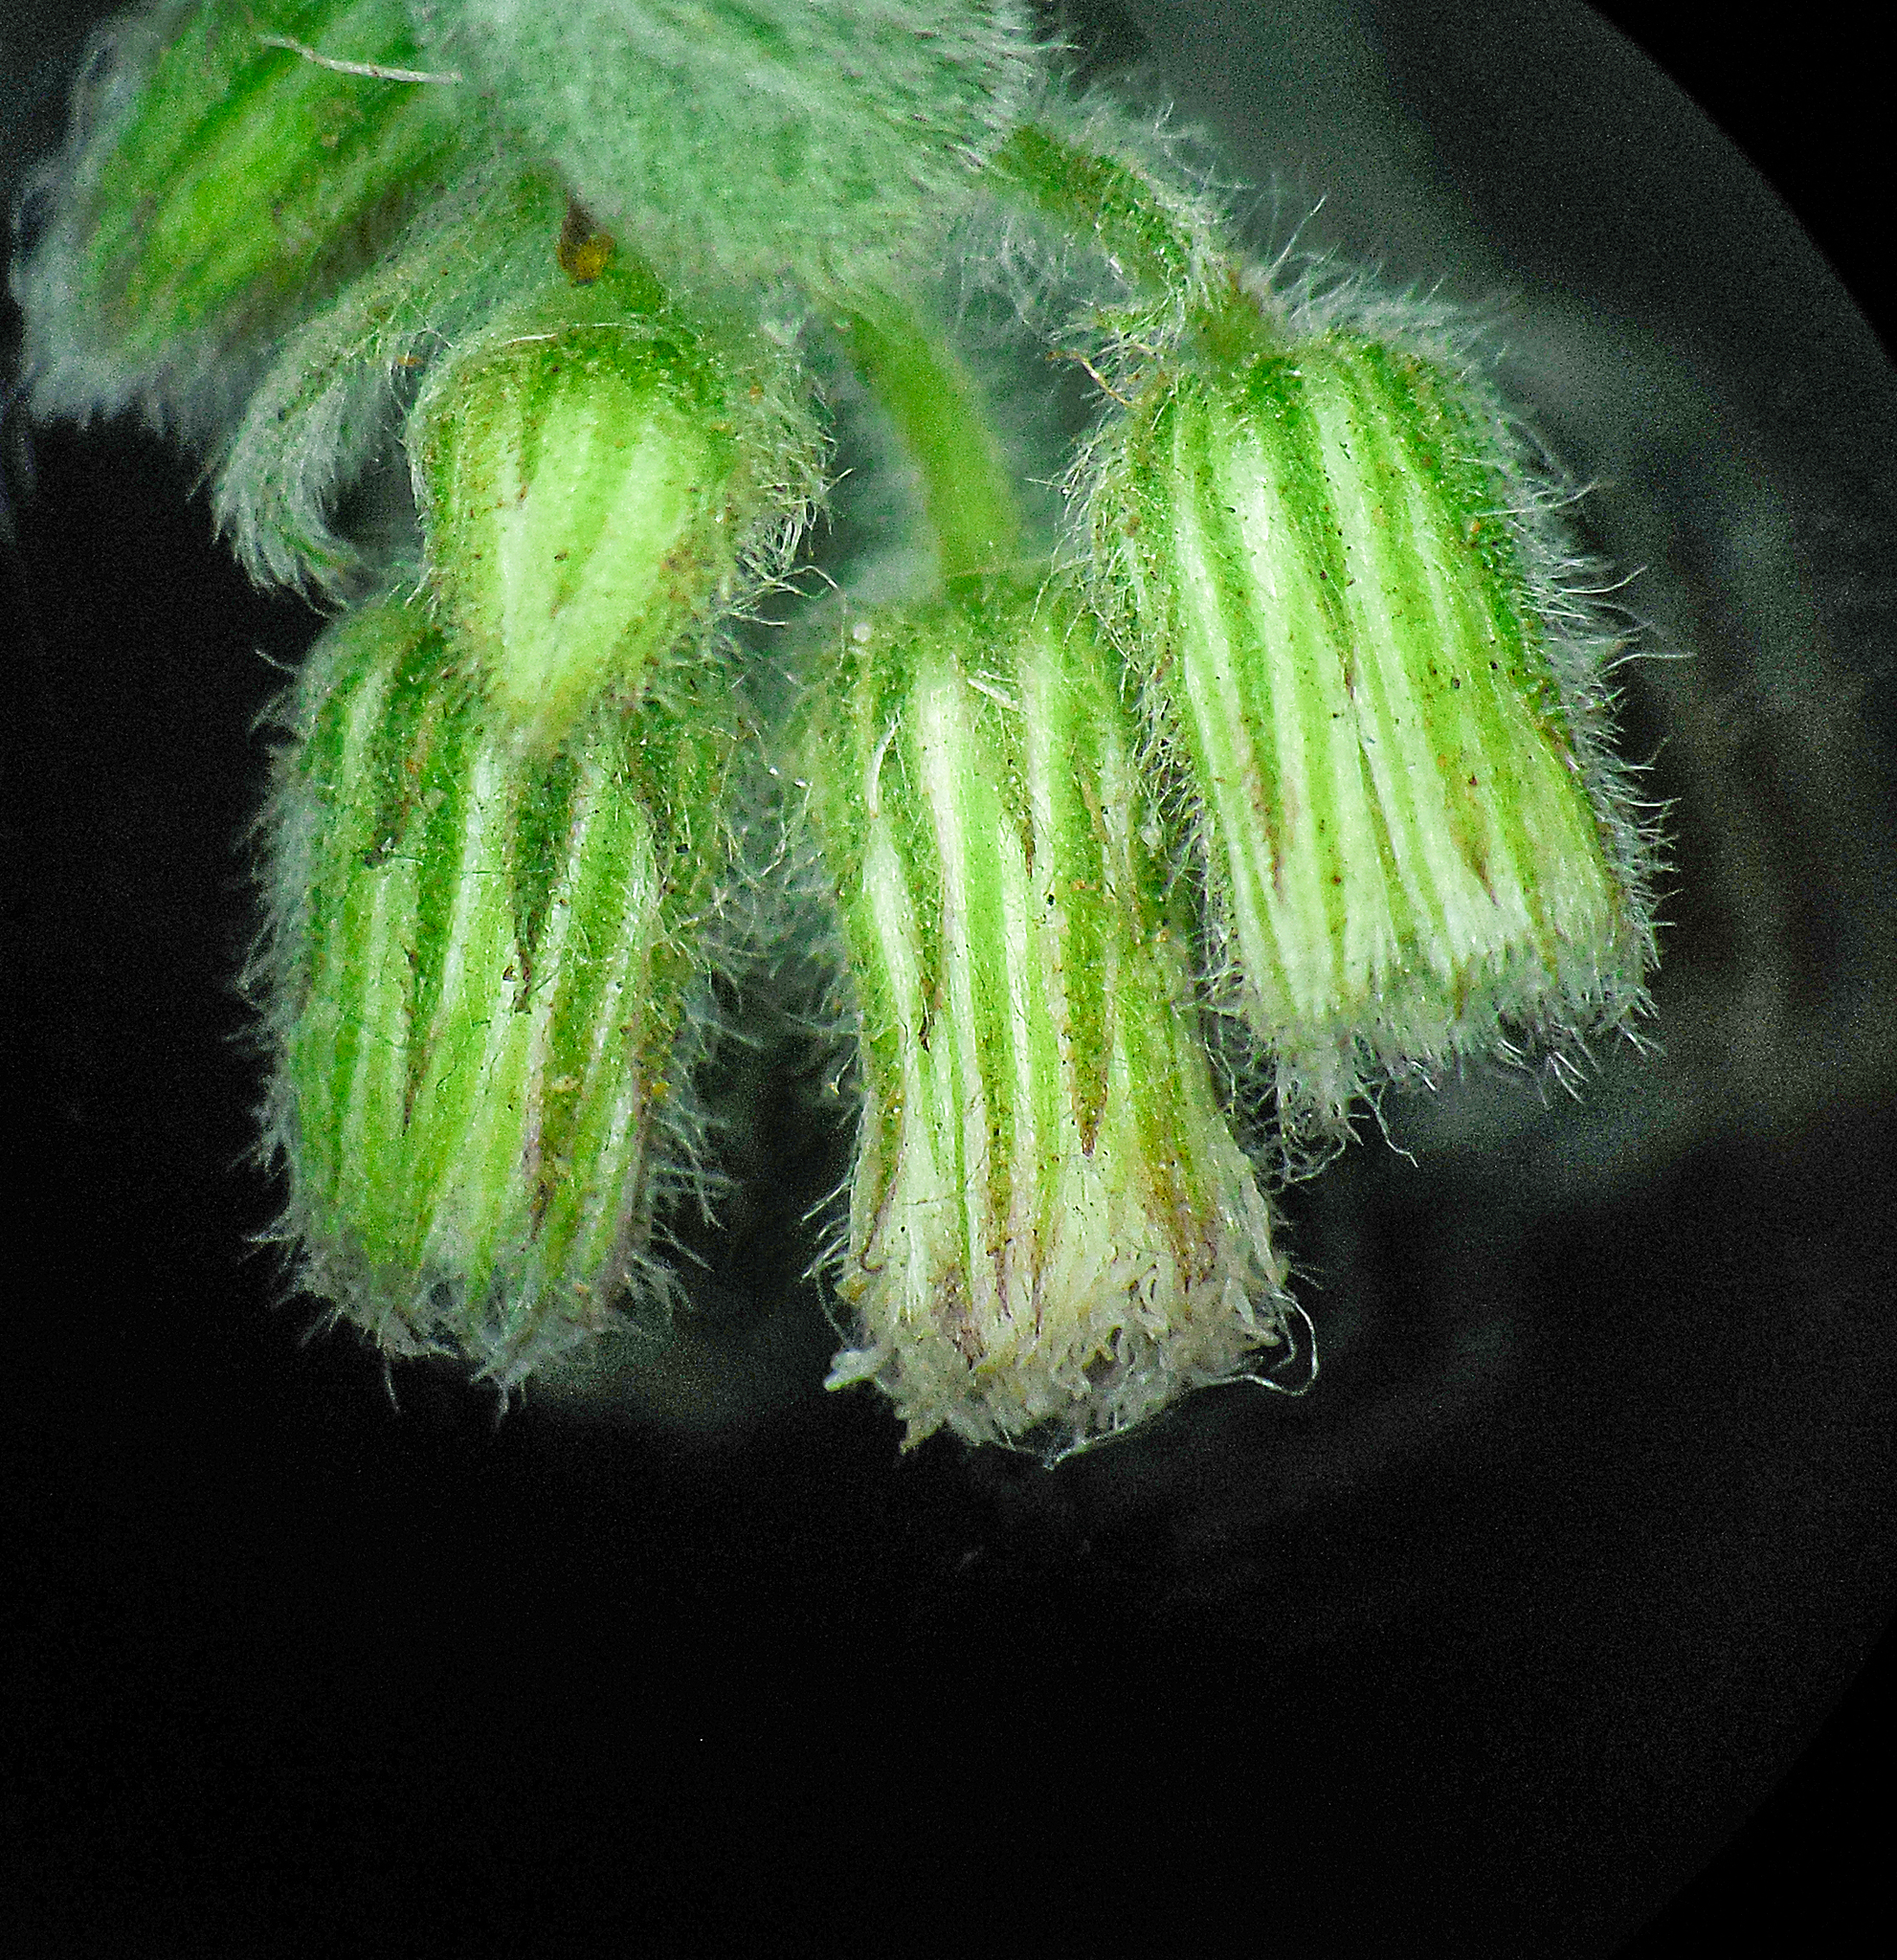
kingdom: Plantae
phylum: Tracheophyta
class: Magnoliopsida
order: Asterales
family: Asteraceae
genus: Blumea
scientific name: Blumea axillaris
